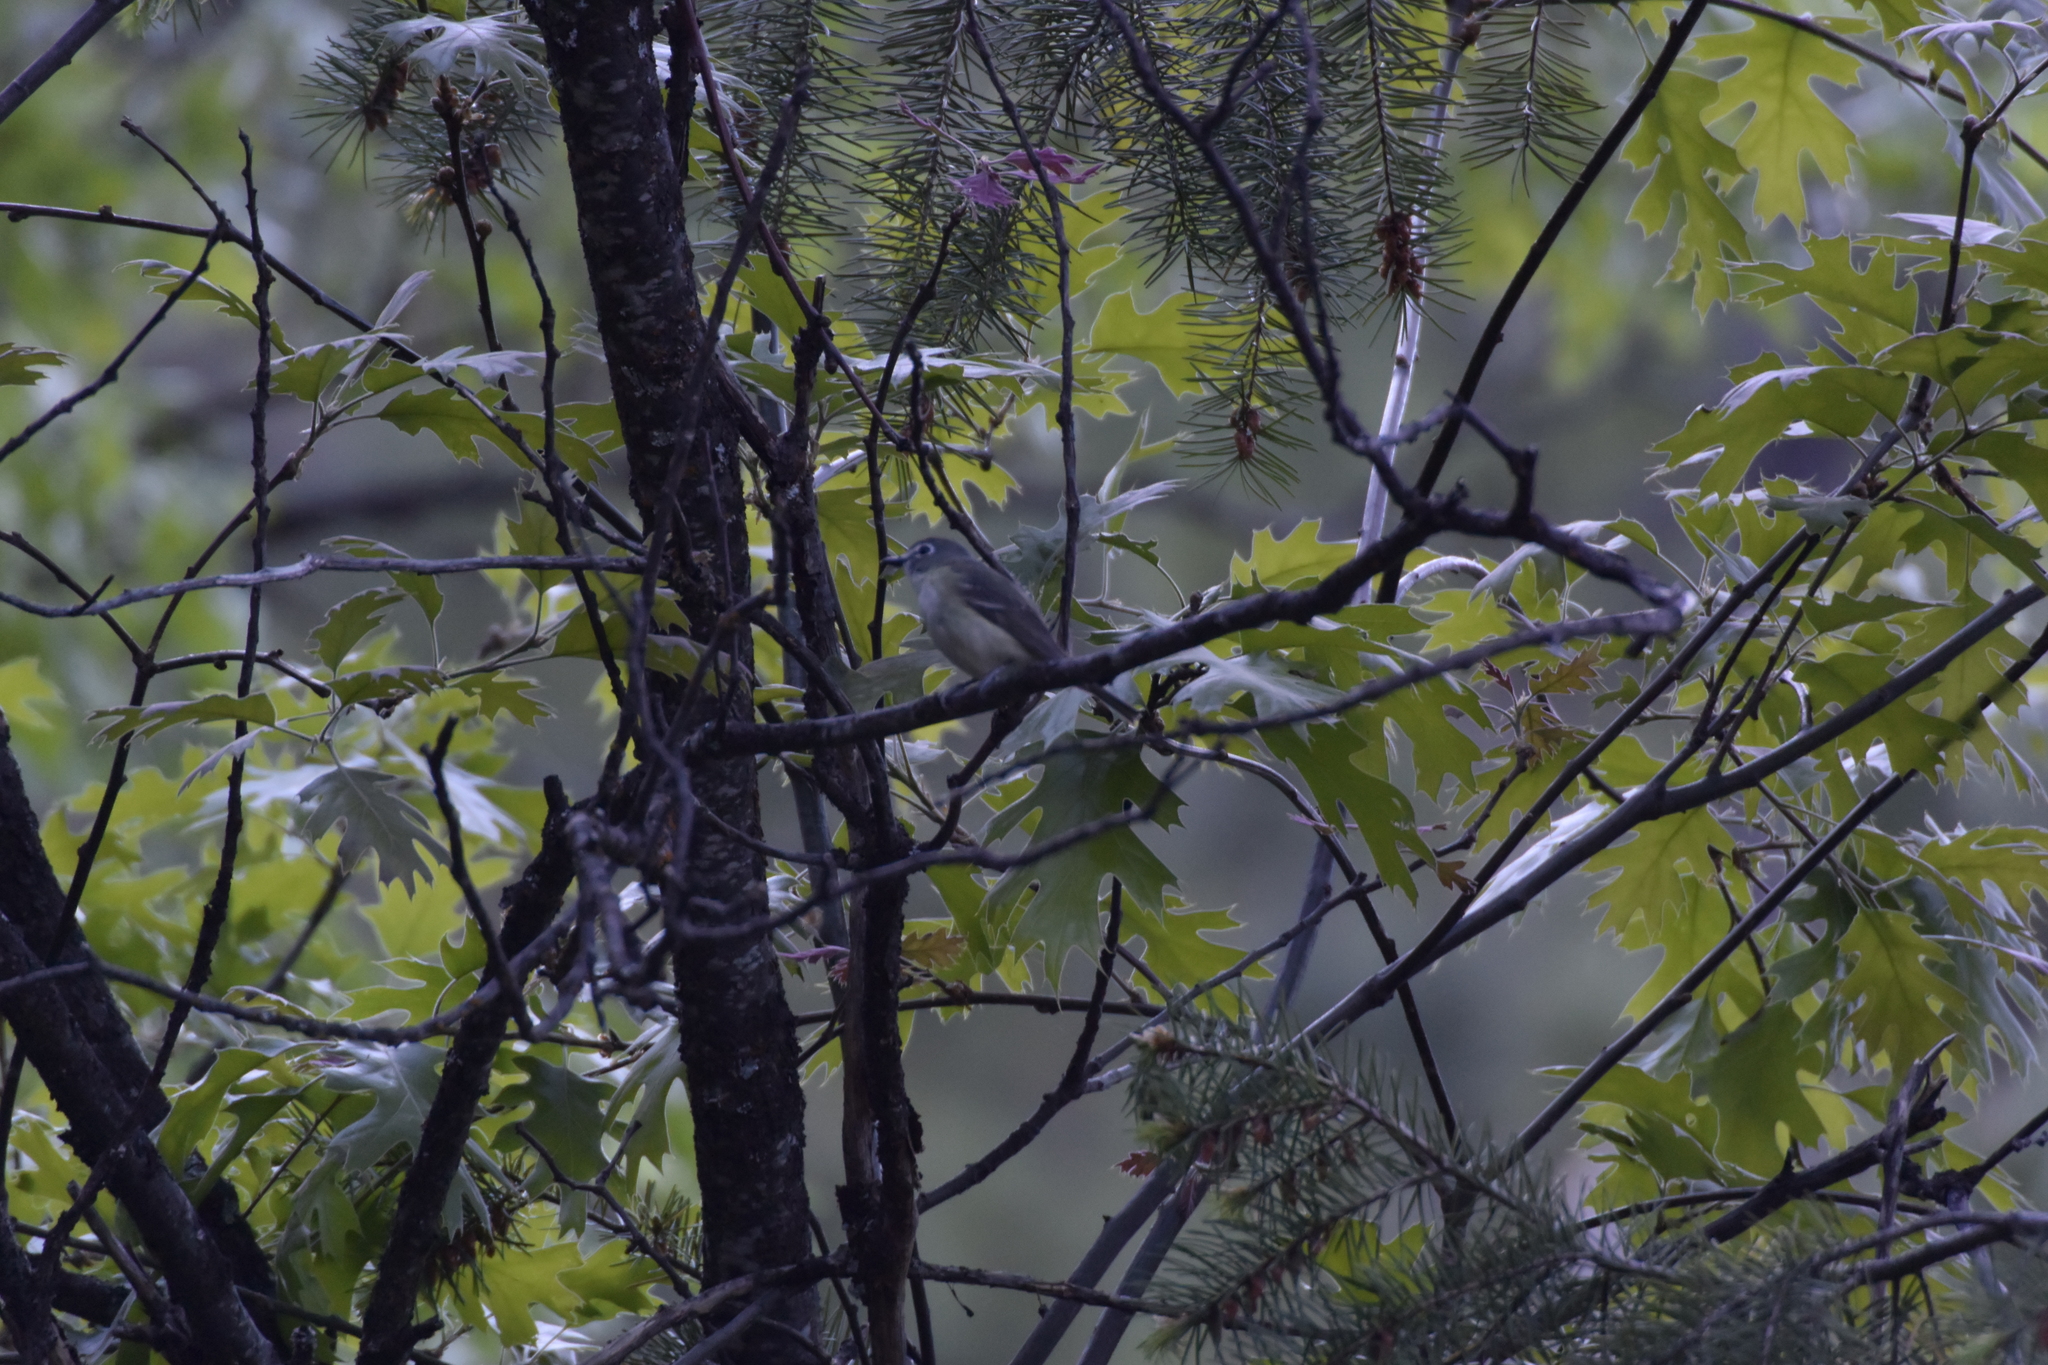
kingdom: Animalia
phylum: Chordata
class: Aves
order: Passeriformes
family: Vireonidae
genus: Vireo
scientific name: Vireo cassinii
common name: Cassin's vireo
